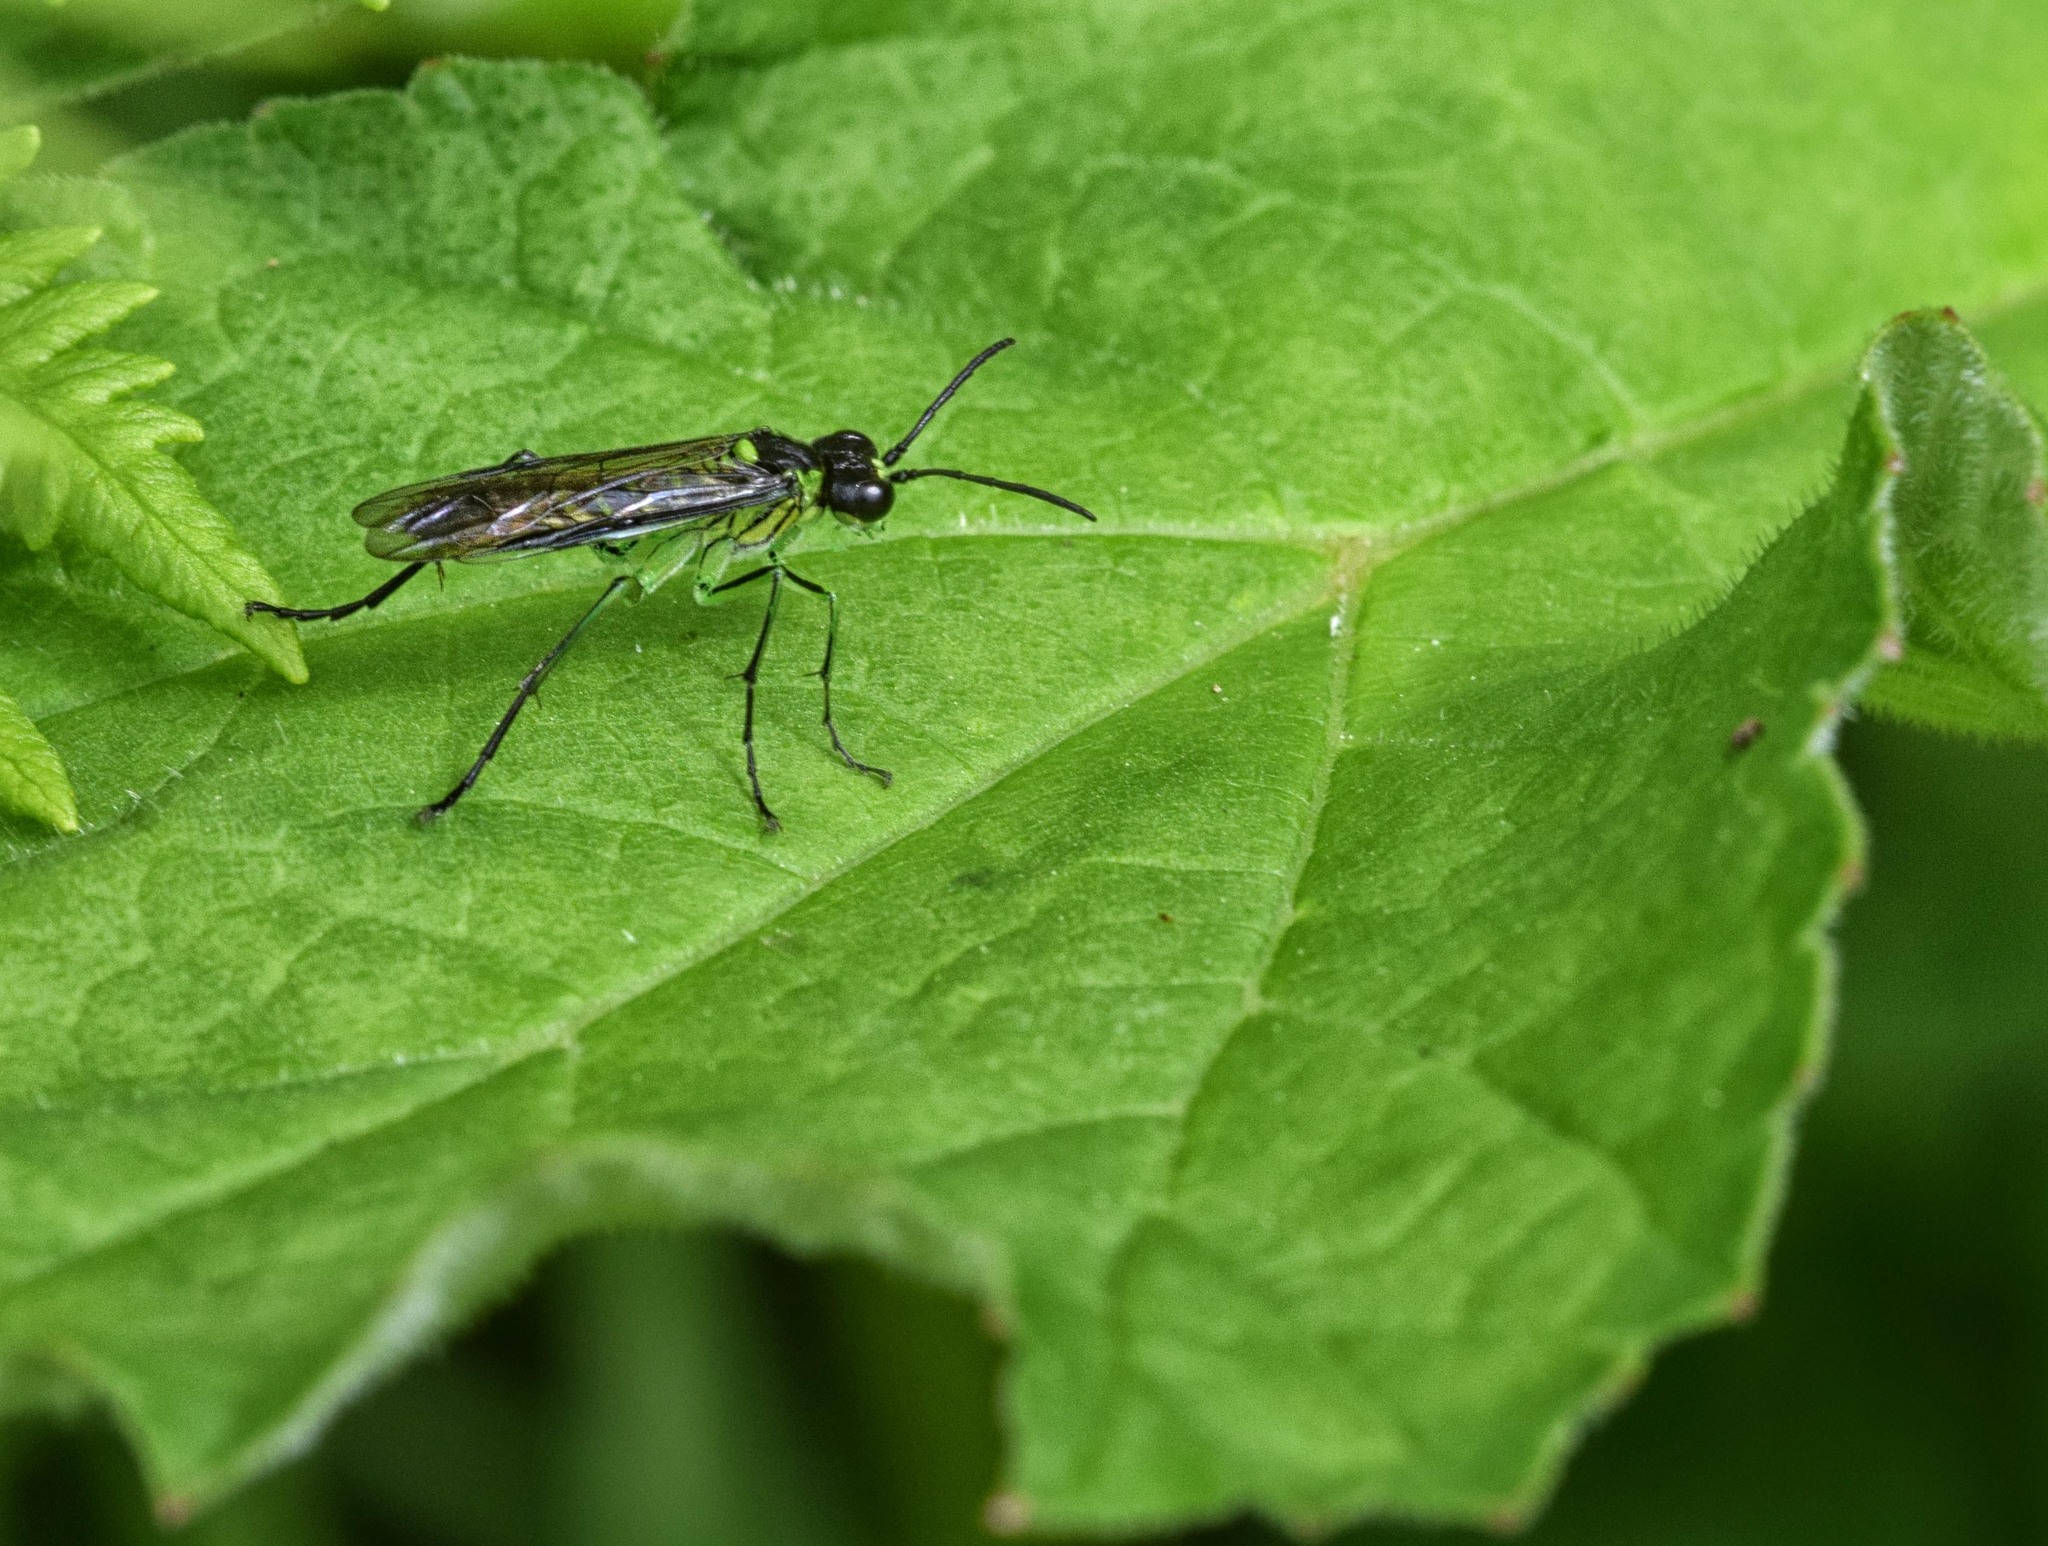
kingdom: Animalia
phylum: Arthropoda
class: Insecta
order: Hymenoptera
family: Tenthredinidae
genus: Tenthredo
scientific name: Tenthredo mesomela
